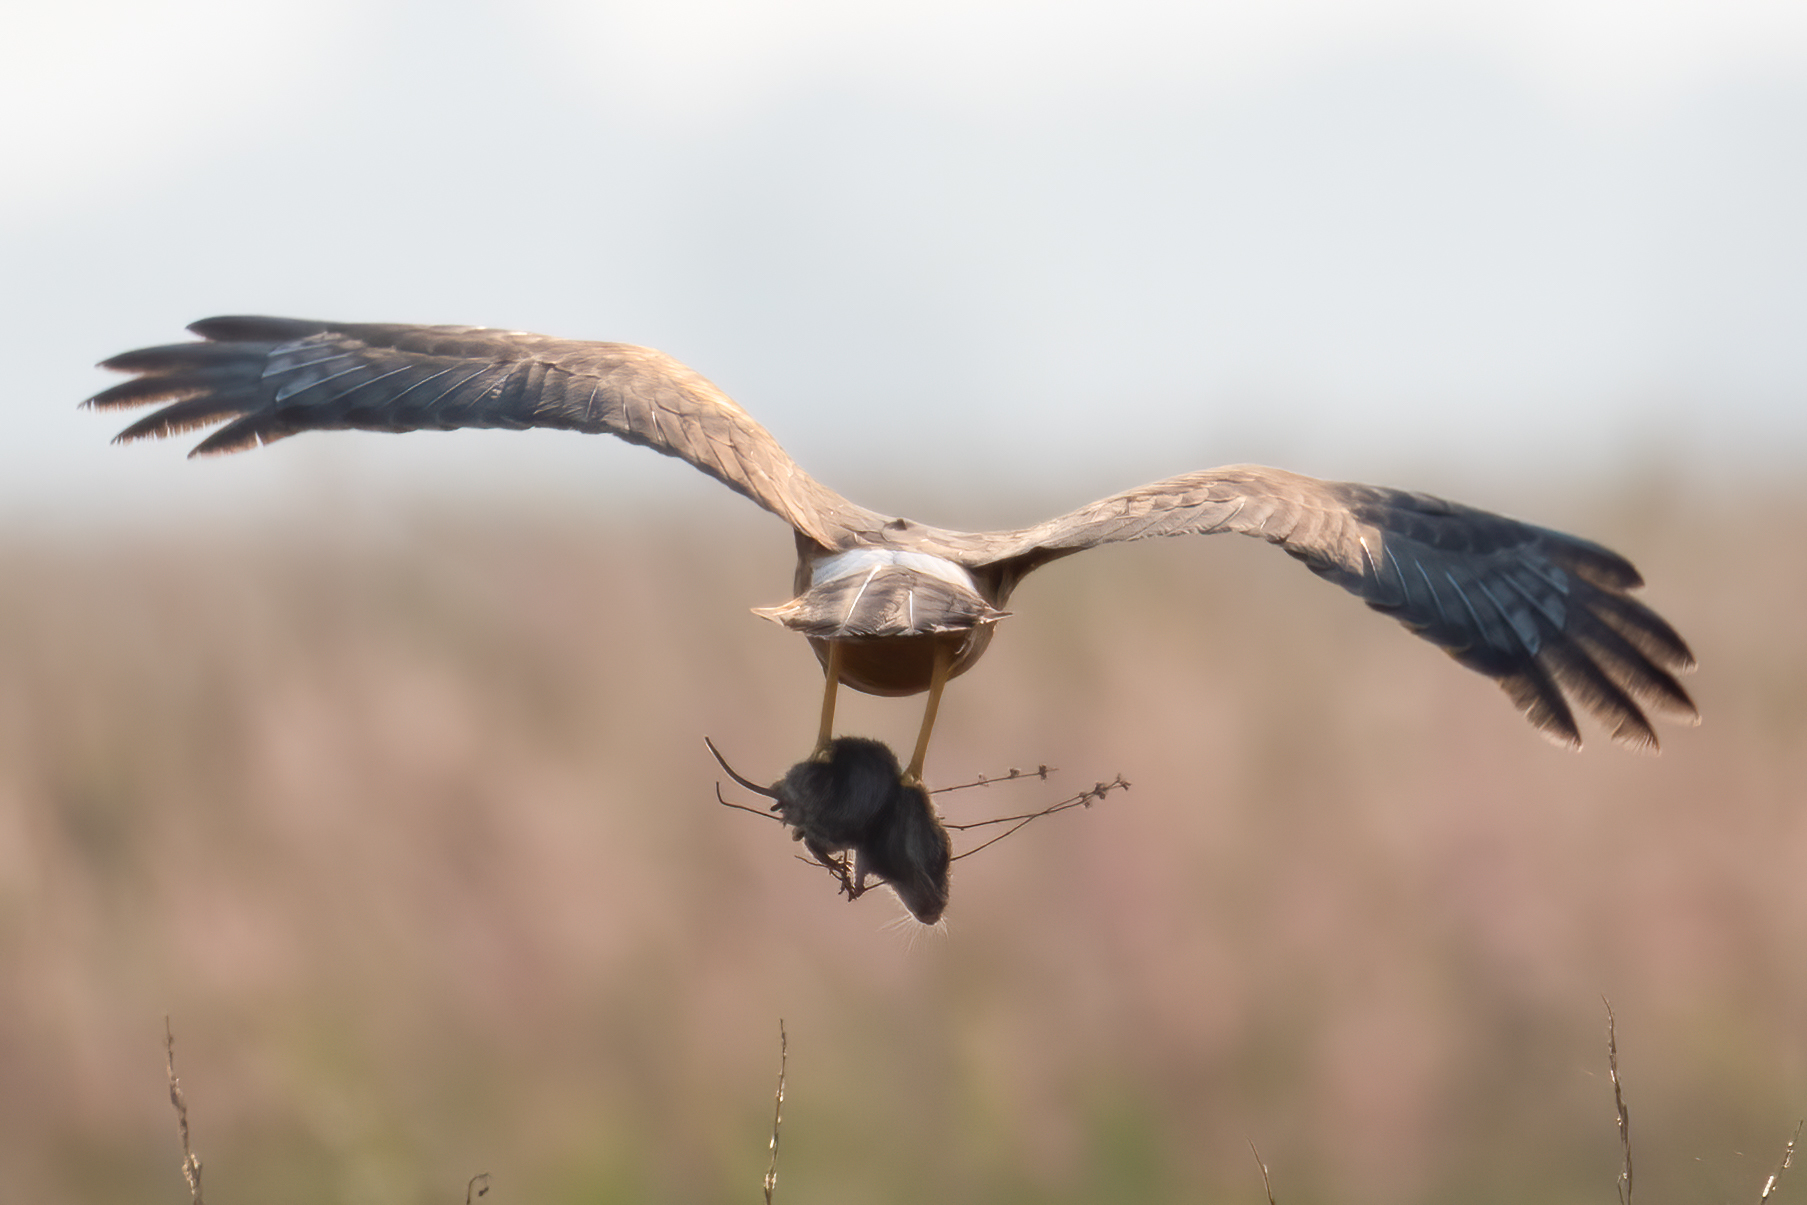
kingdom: Animalia
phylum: Chordata
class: Aves
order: Accipitriformes
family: Accipitridae
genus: Circus
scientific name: Circus cyaneus
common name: Hen harrier
